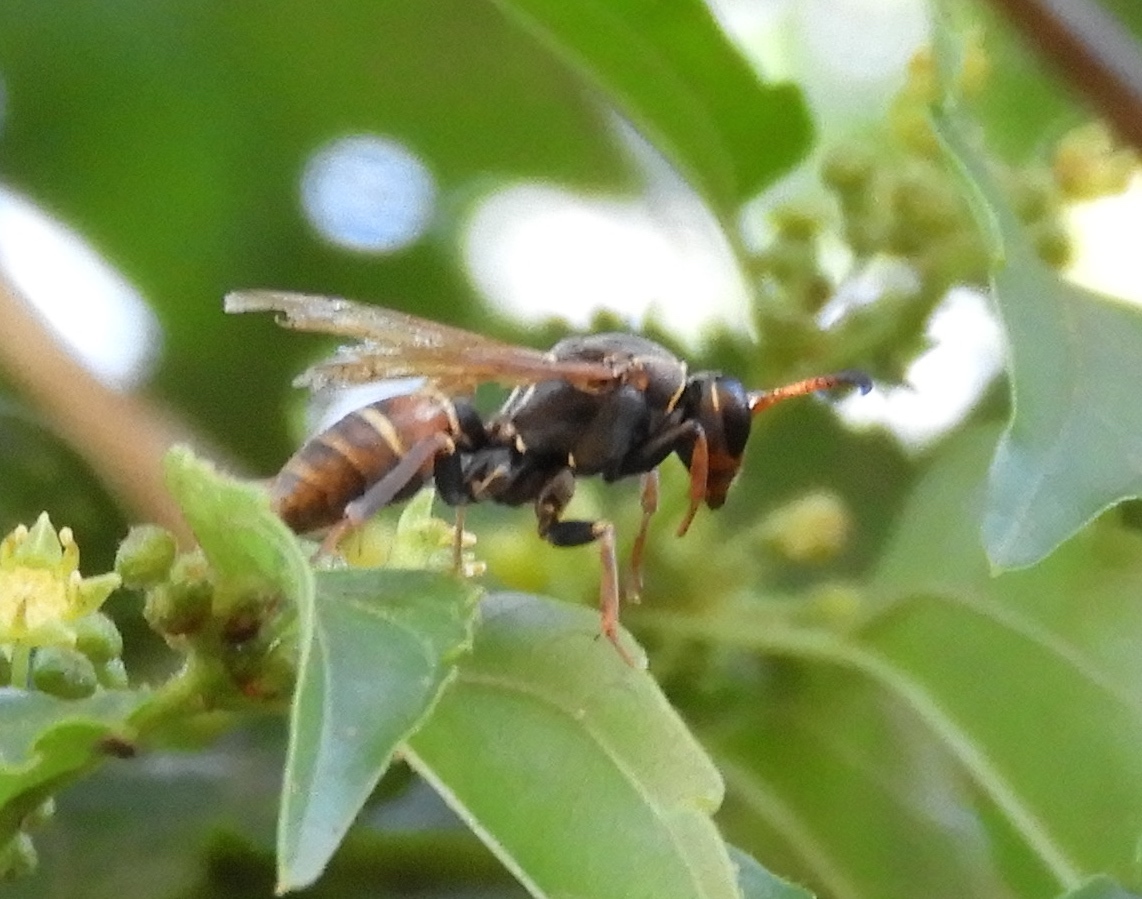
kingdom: Animalia
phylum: Arthropoda
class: Insecta
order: Hymenoptera
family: Eumenidae
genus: Polistes
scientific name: Polistes pacificus
